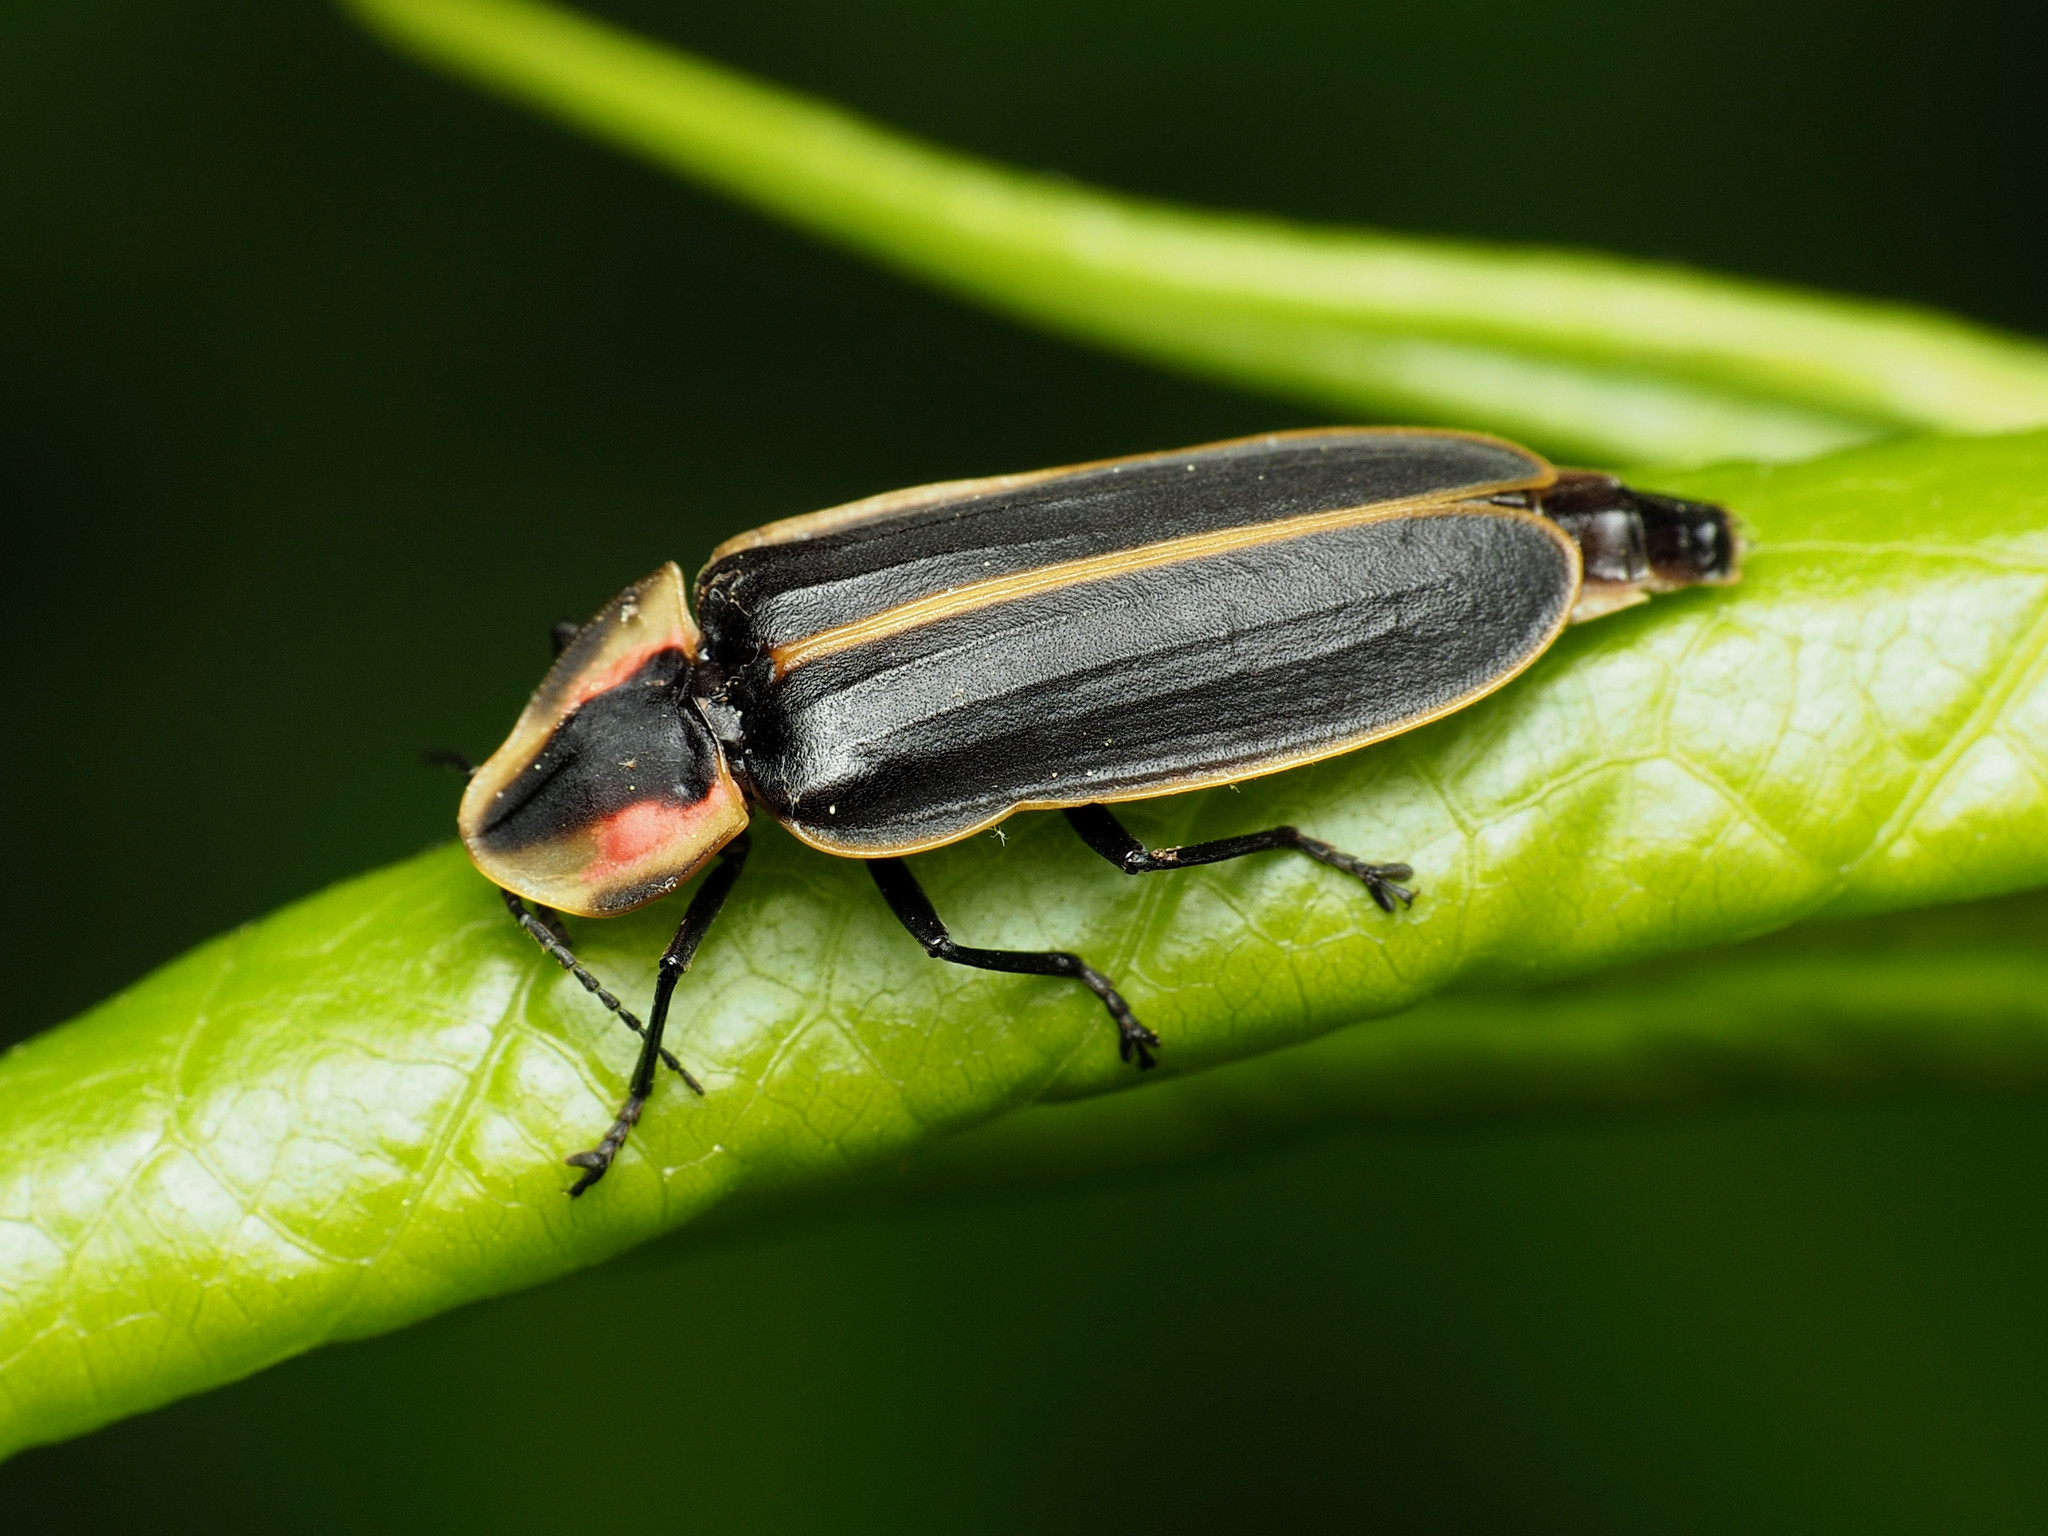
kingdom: Animalia
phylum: Arthropoda
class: Insecta
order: Coleoptera
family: Lampyridae
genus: Pyractomena
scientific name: Pyractomena borealis
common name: Northern firefly
